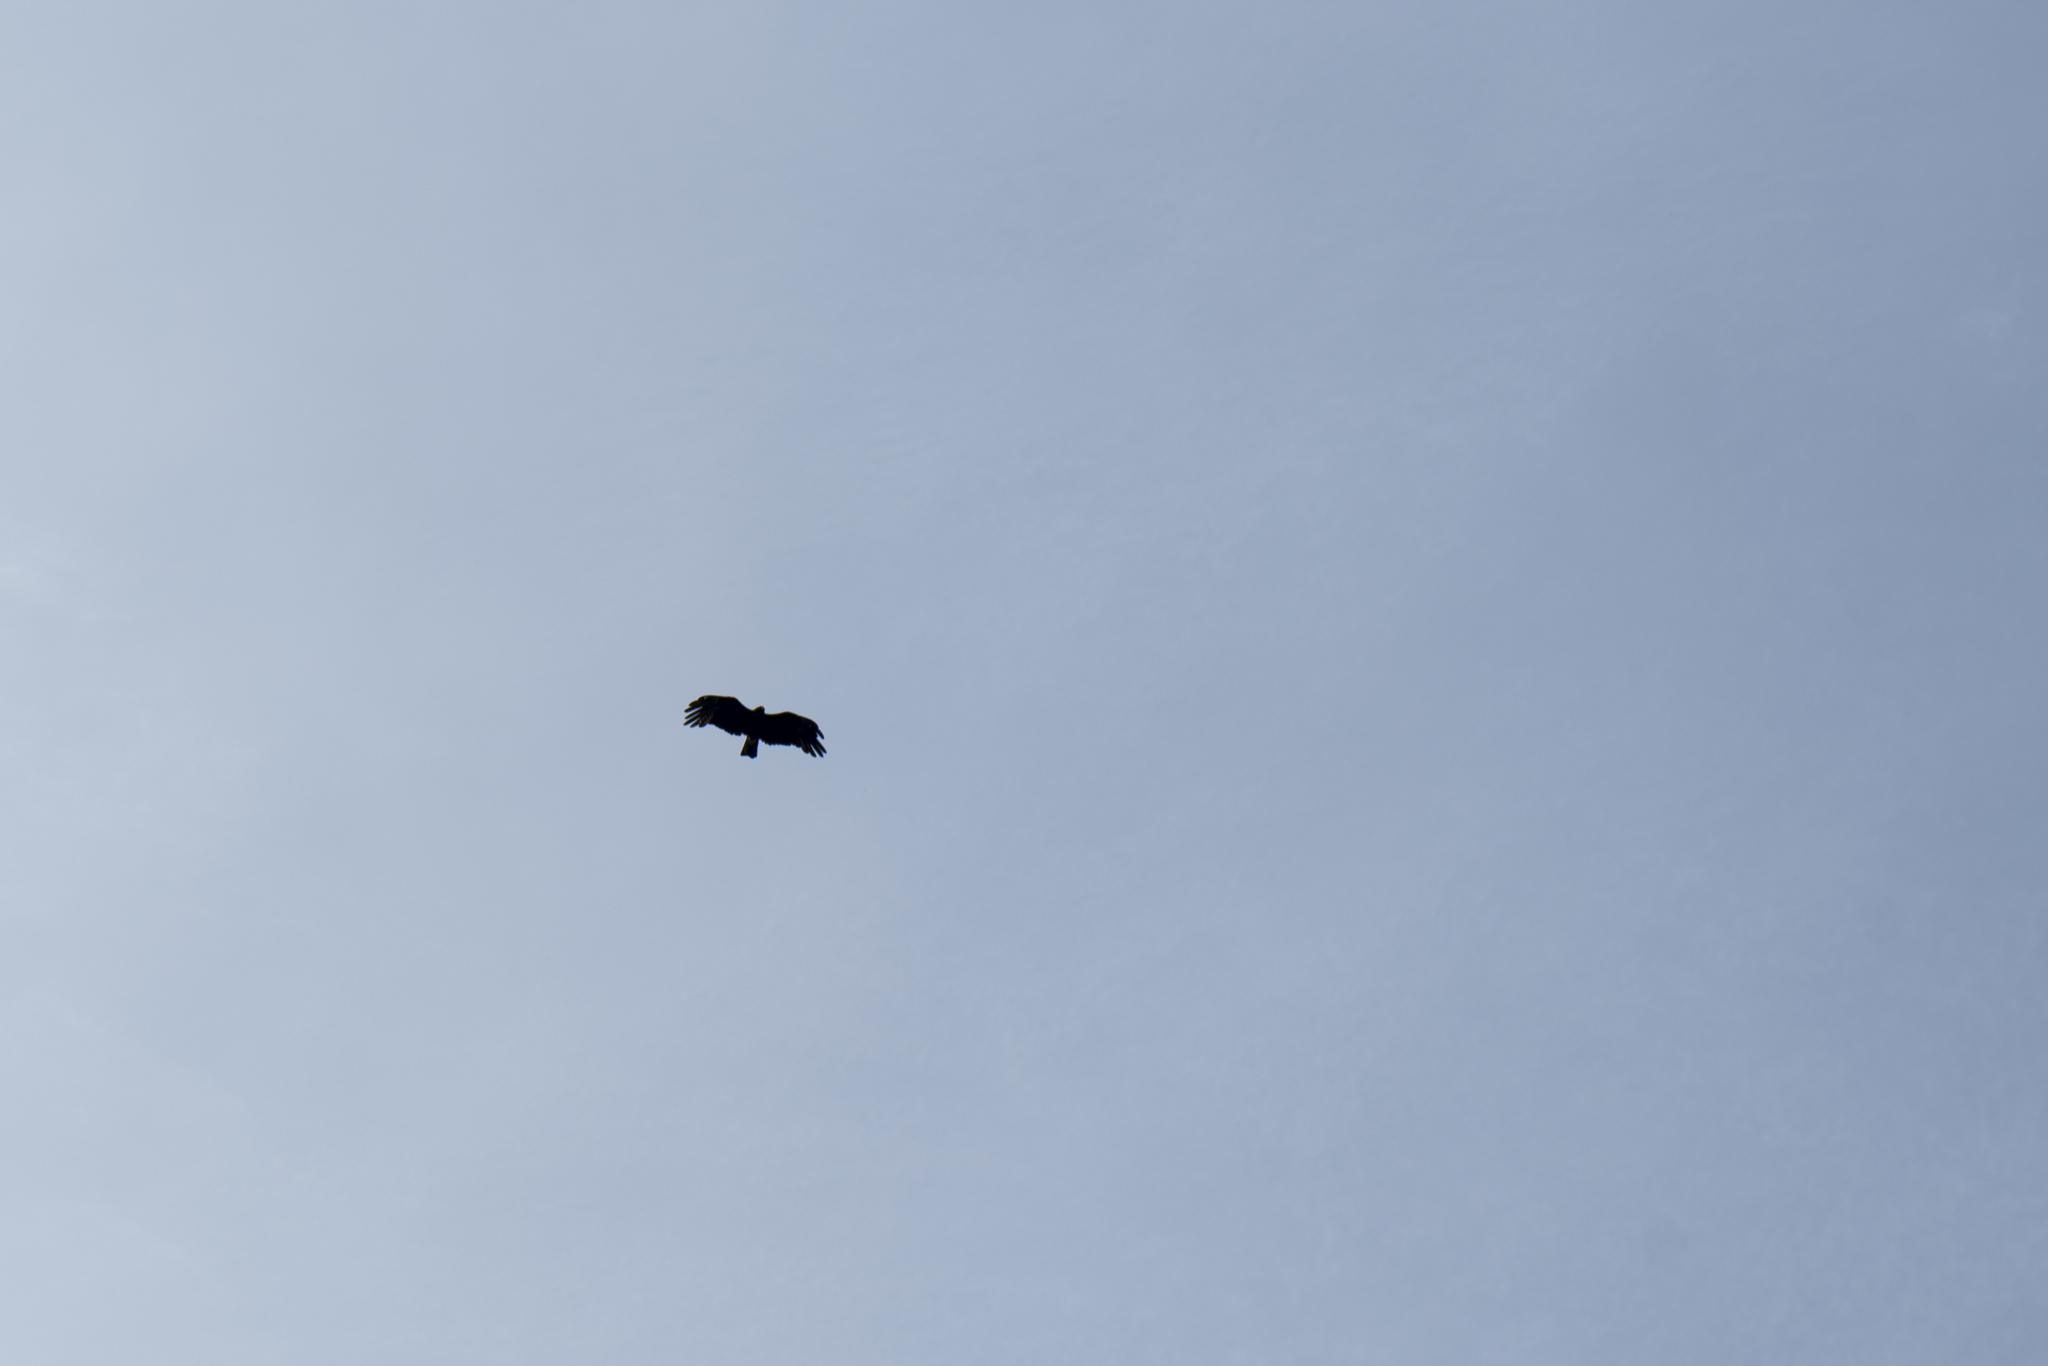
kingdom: Animalia
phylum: Chordata
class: Aves
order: Accipitriformes
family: Accipitridae
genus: Ictinaetus
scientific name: Ictinaetus malayensis
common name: Black eagle
